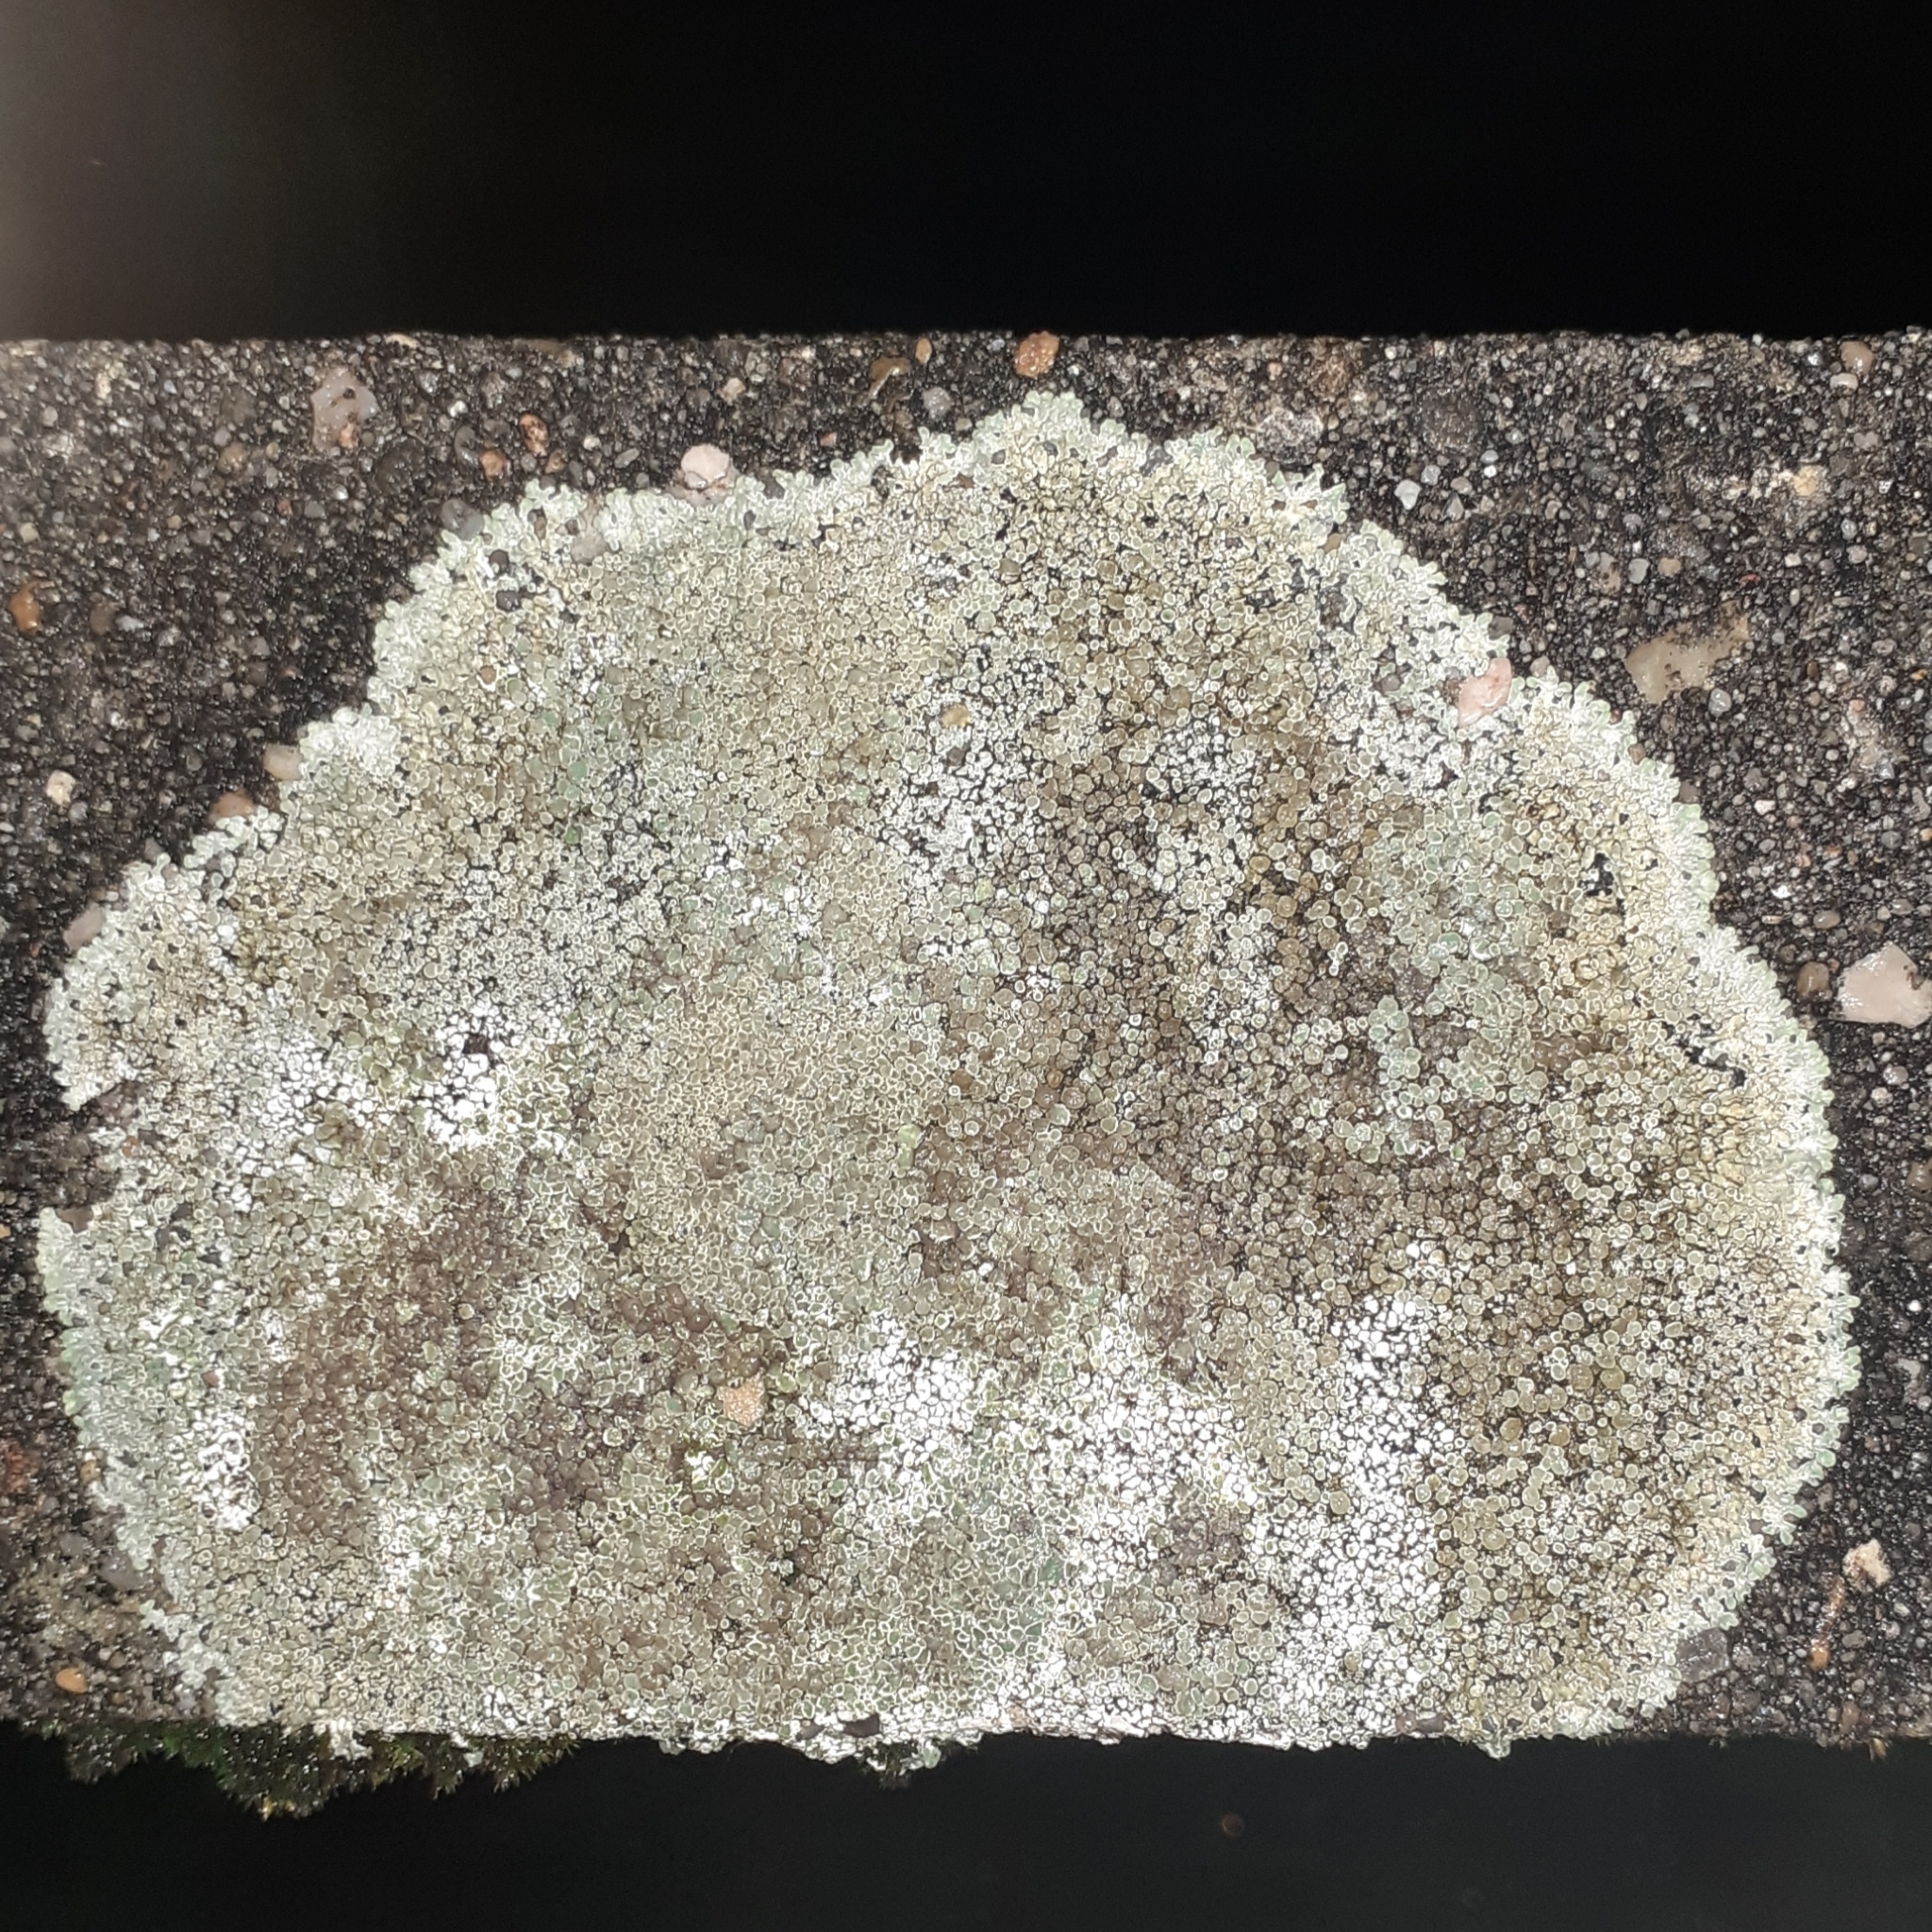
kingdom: Fungi
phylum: Ascomycota
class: Lecanoromycetes
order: Lecanorales
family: Lecanoraceae
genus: Protoparmeliopsis
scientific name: Protoparmeliopsis muralis
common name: Stonewall rim lichen
